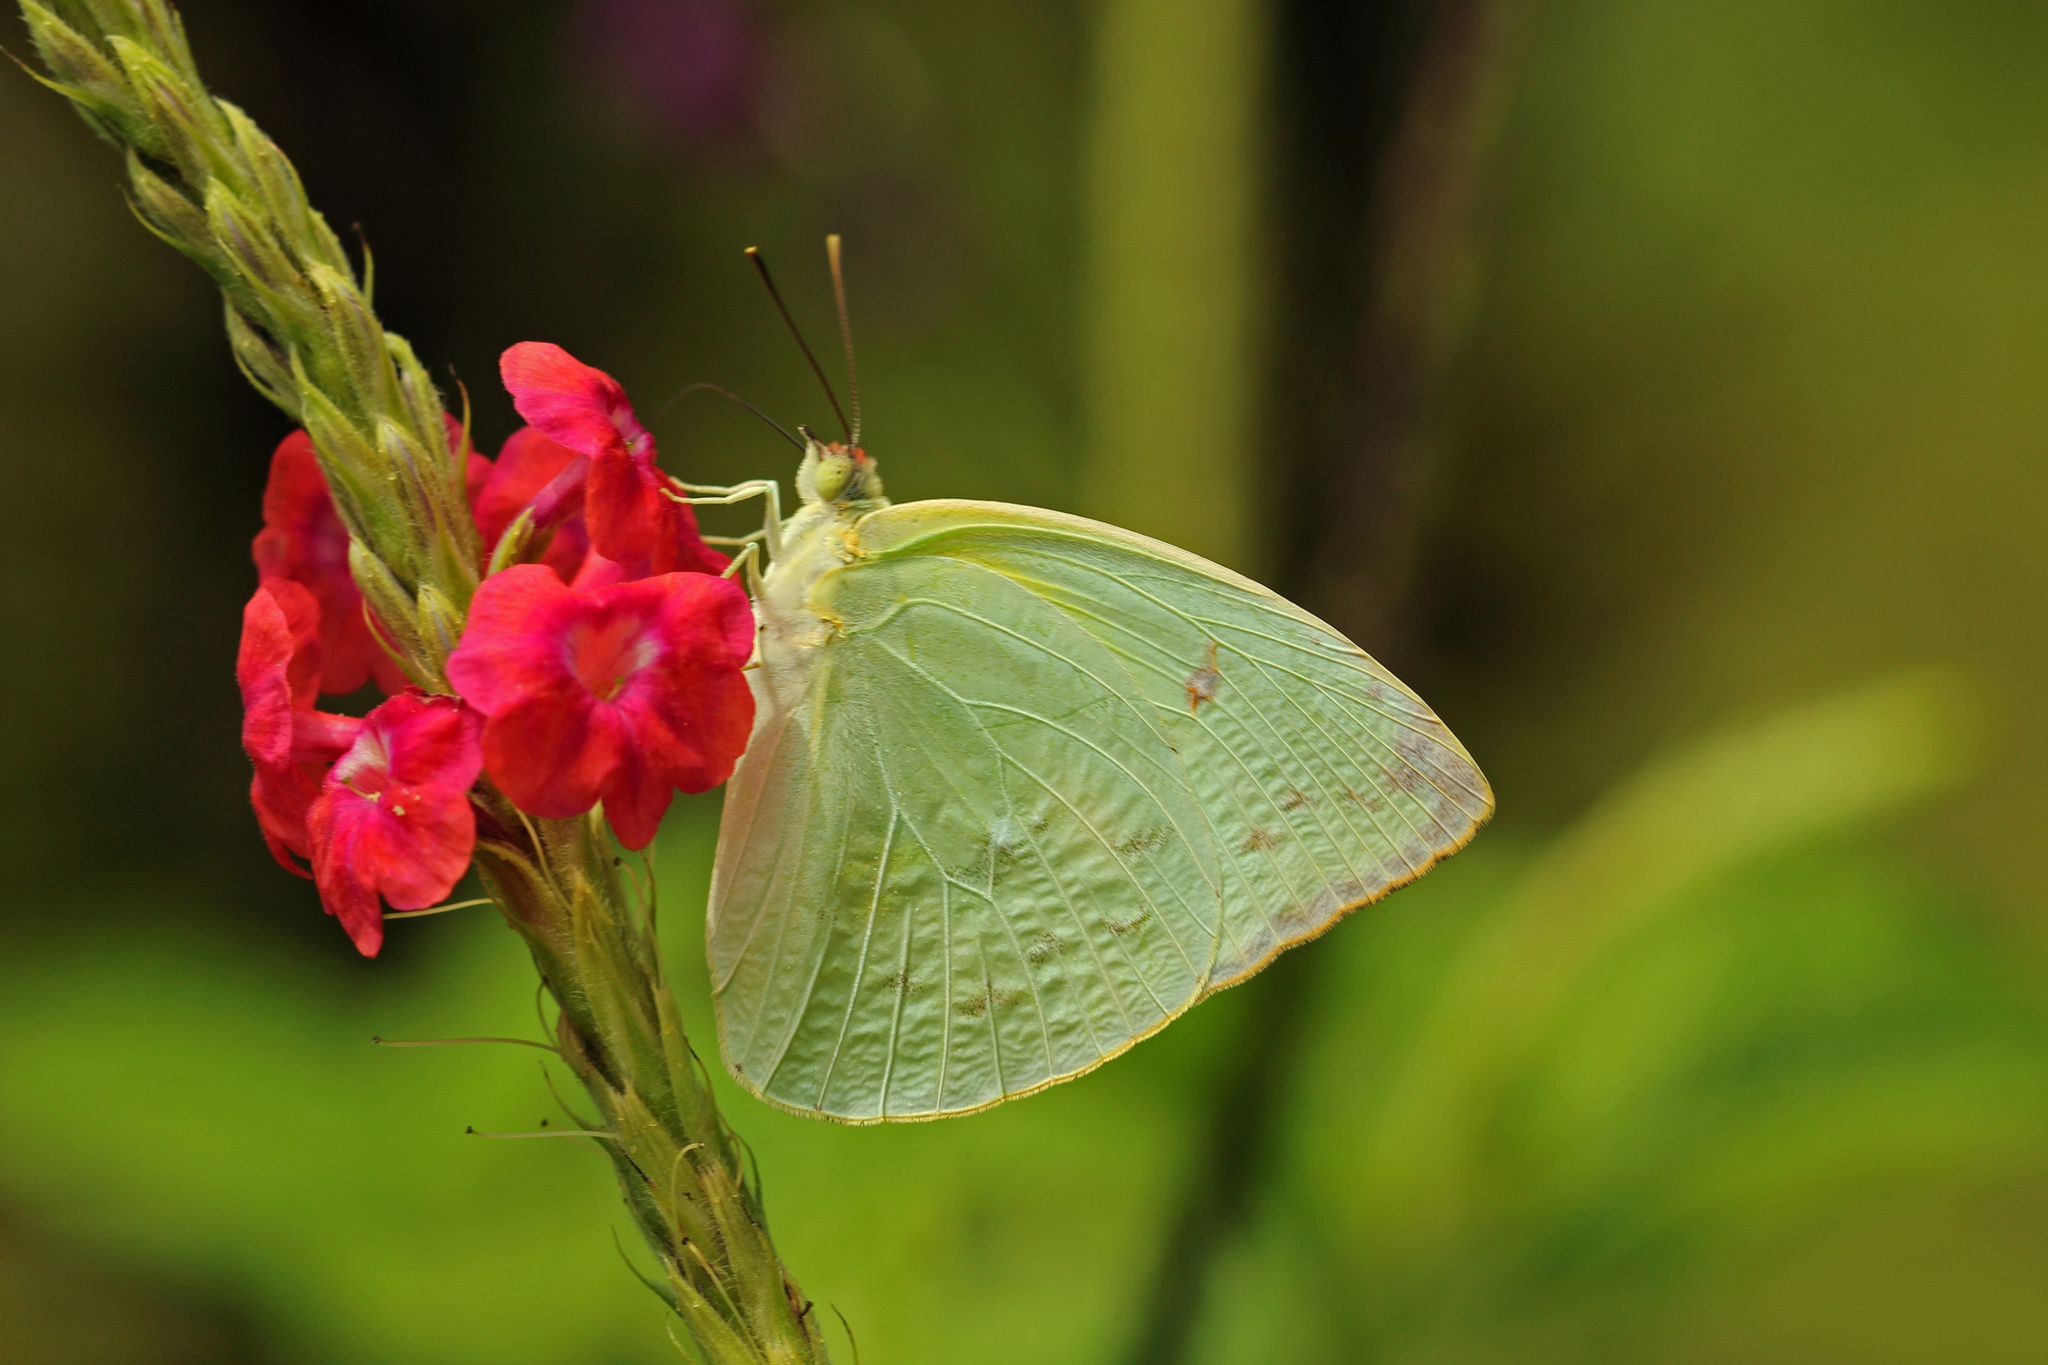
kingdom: Animalia
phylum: Arthropoda
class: Insecta
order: Lepidoptera
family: Pieridae
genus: Aphrissa
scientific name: Aphrissa statira
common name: Statira sulphur
